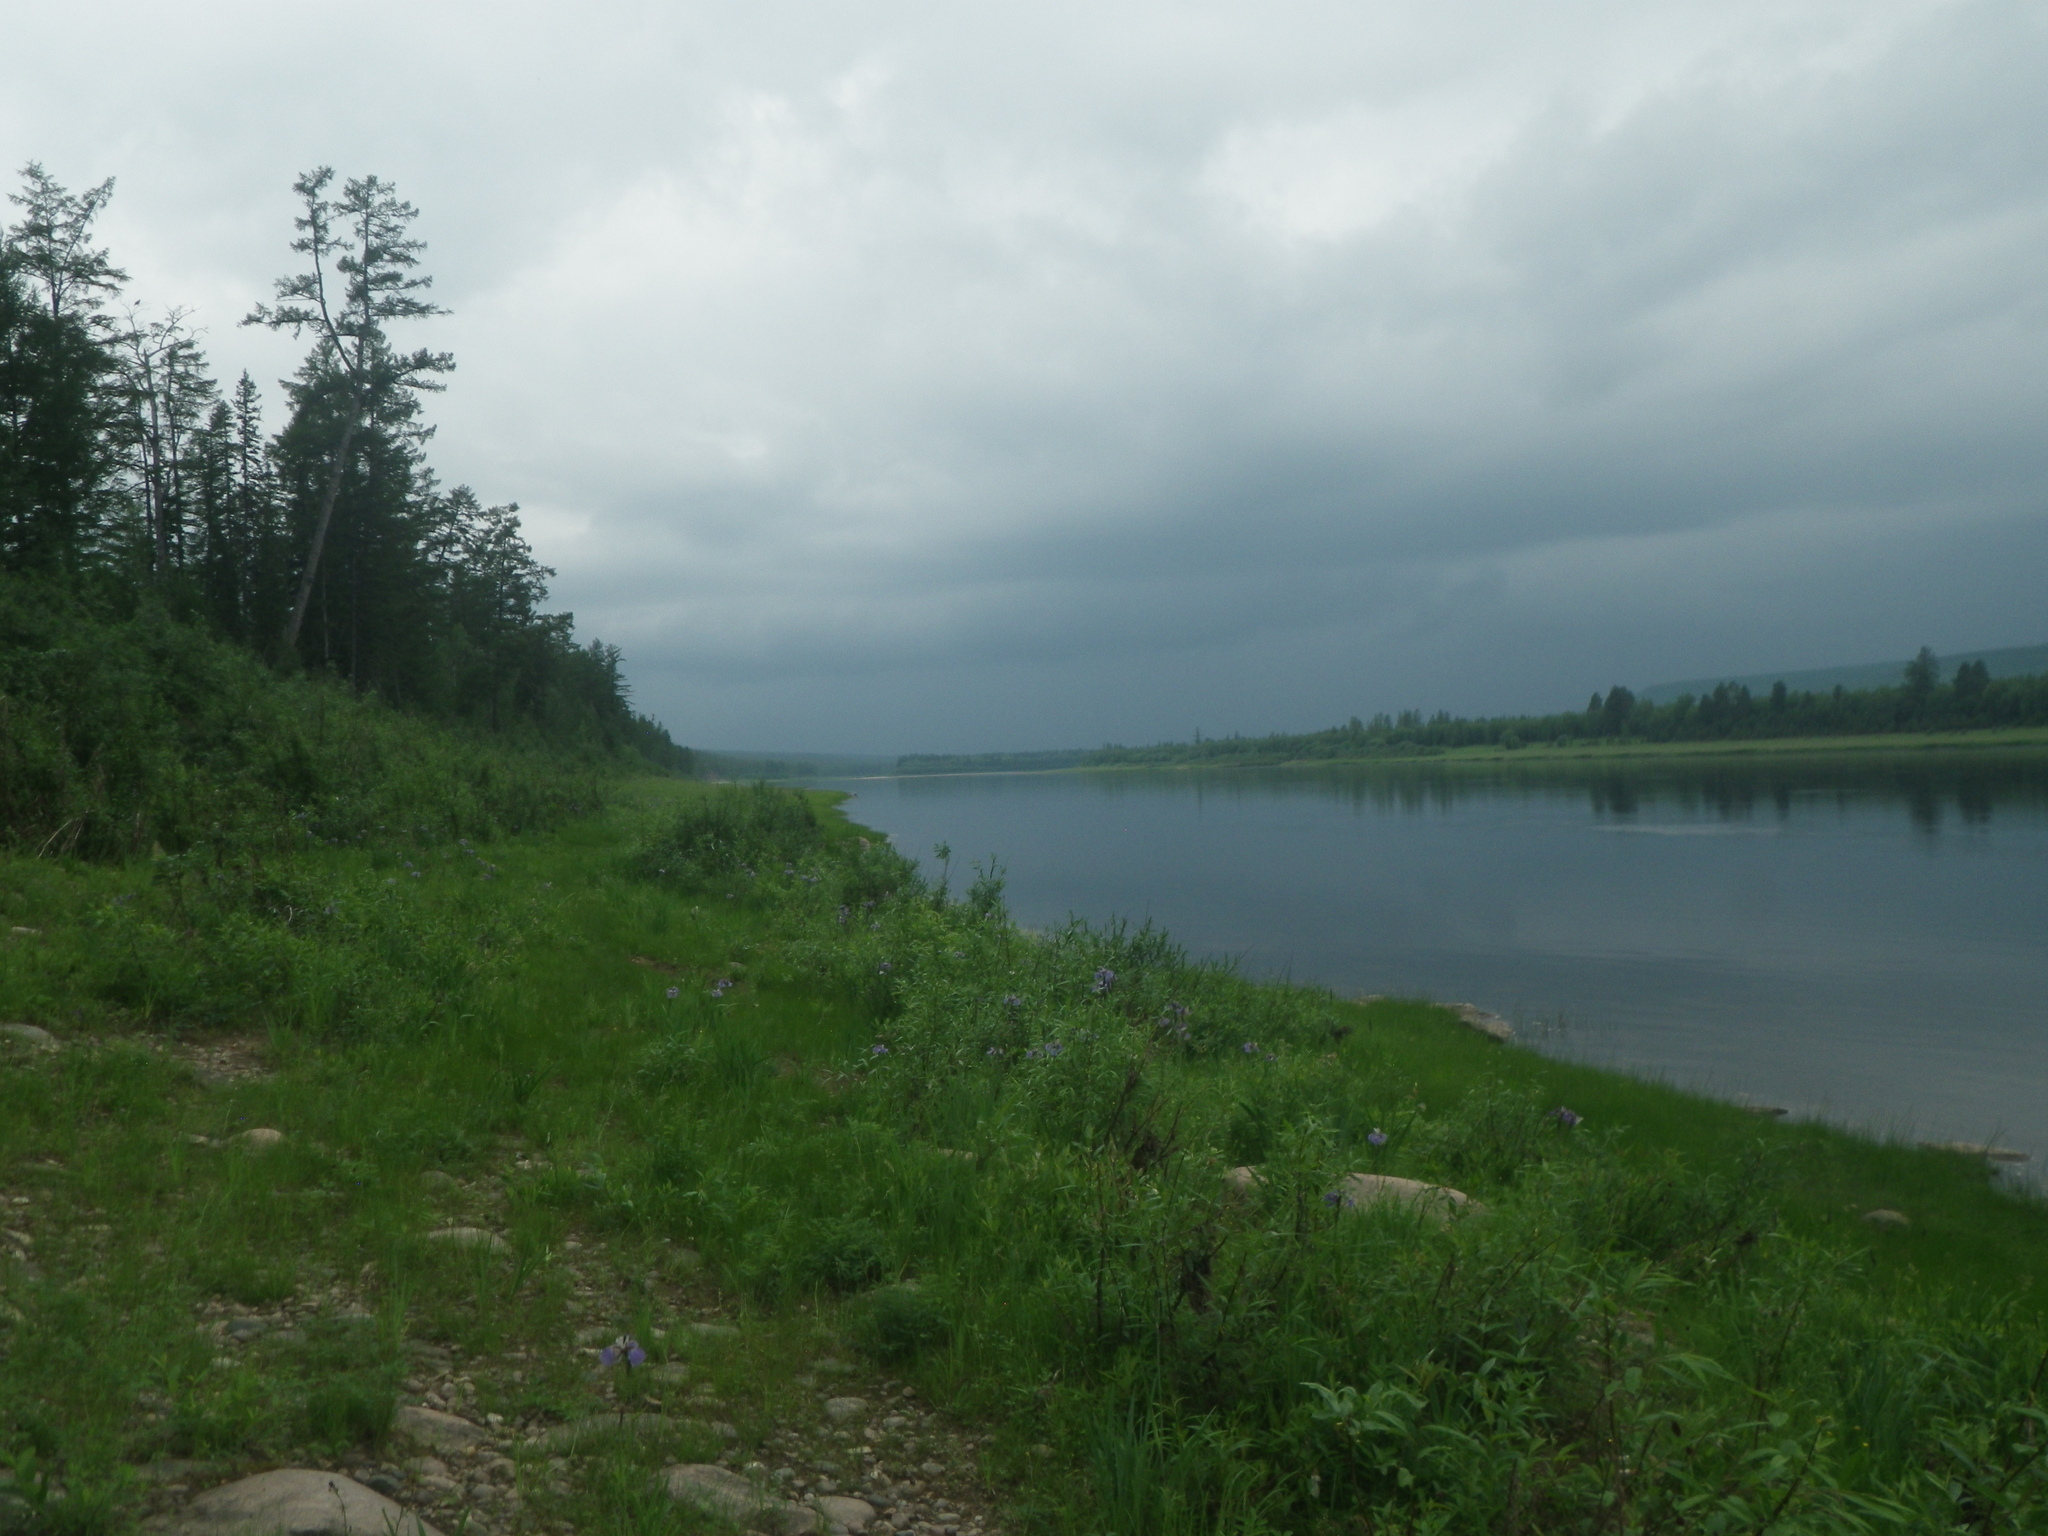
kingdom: Plantae
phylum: Tracheophyta
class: Pinopsida
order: Pinales
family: Pinaceae
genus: Larix
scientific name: Larix gmelinii
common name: Dahurian larch
